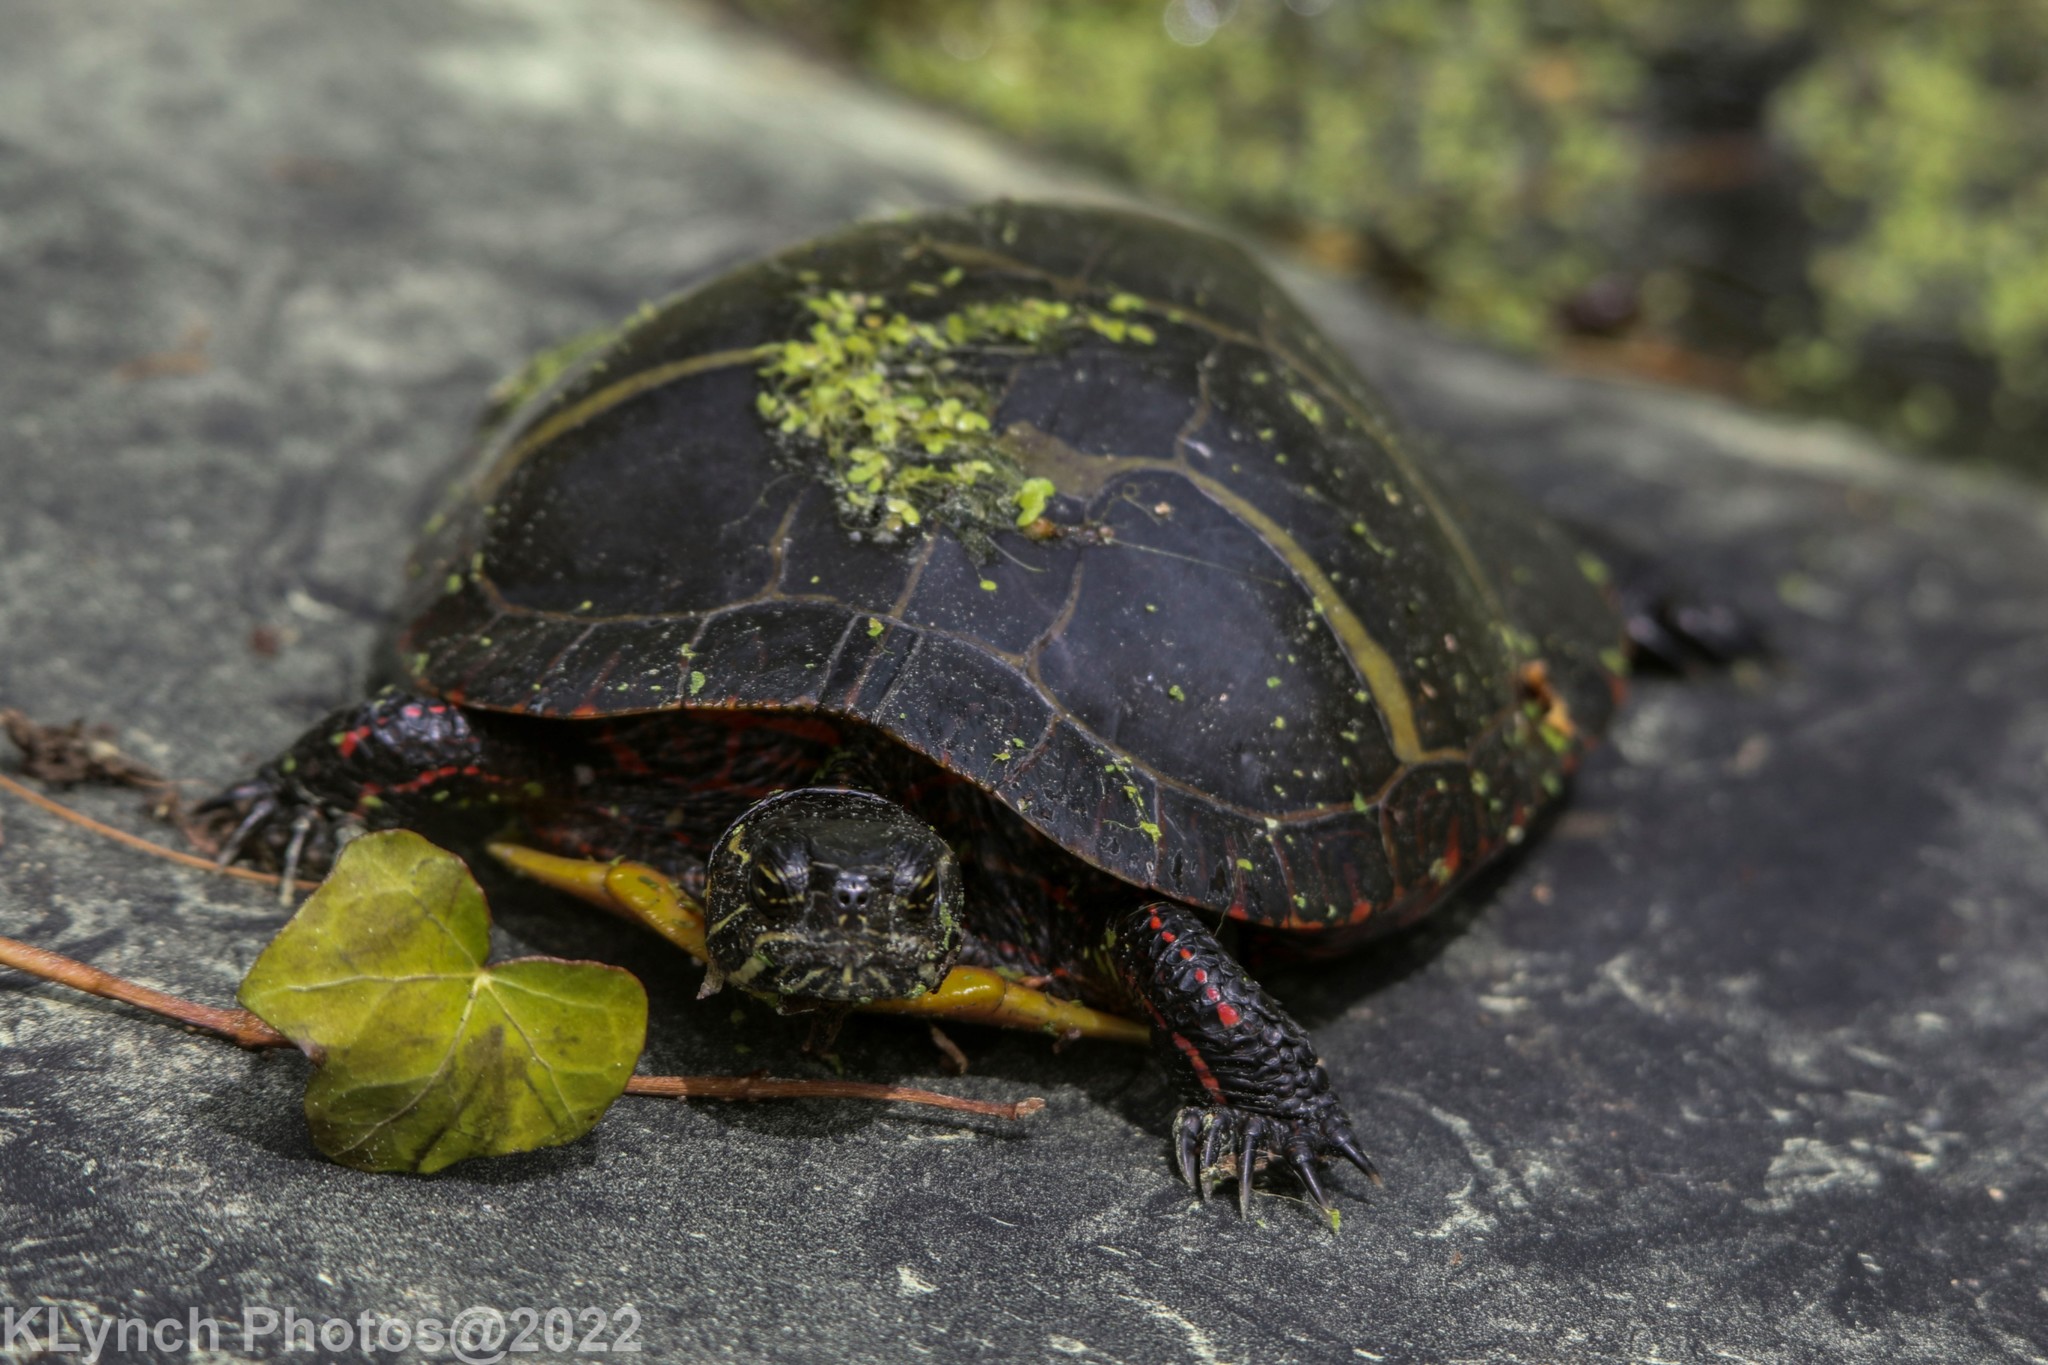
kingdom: Animalia
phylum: Chordata
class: Testudines
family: Emydidae
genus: Chrysemys
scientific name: Chrysemys picta
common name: Painted turtle
